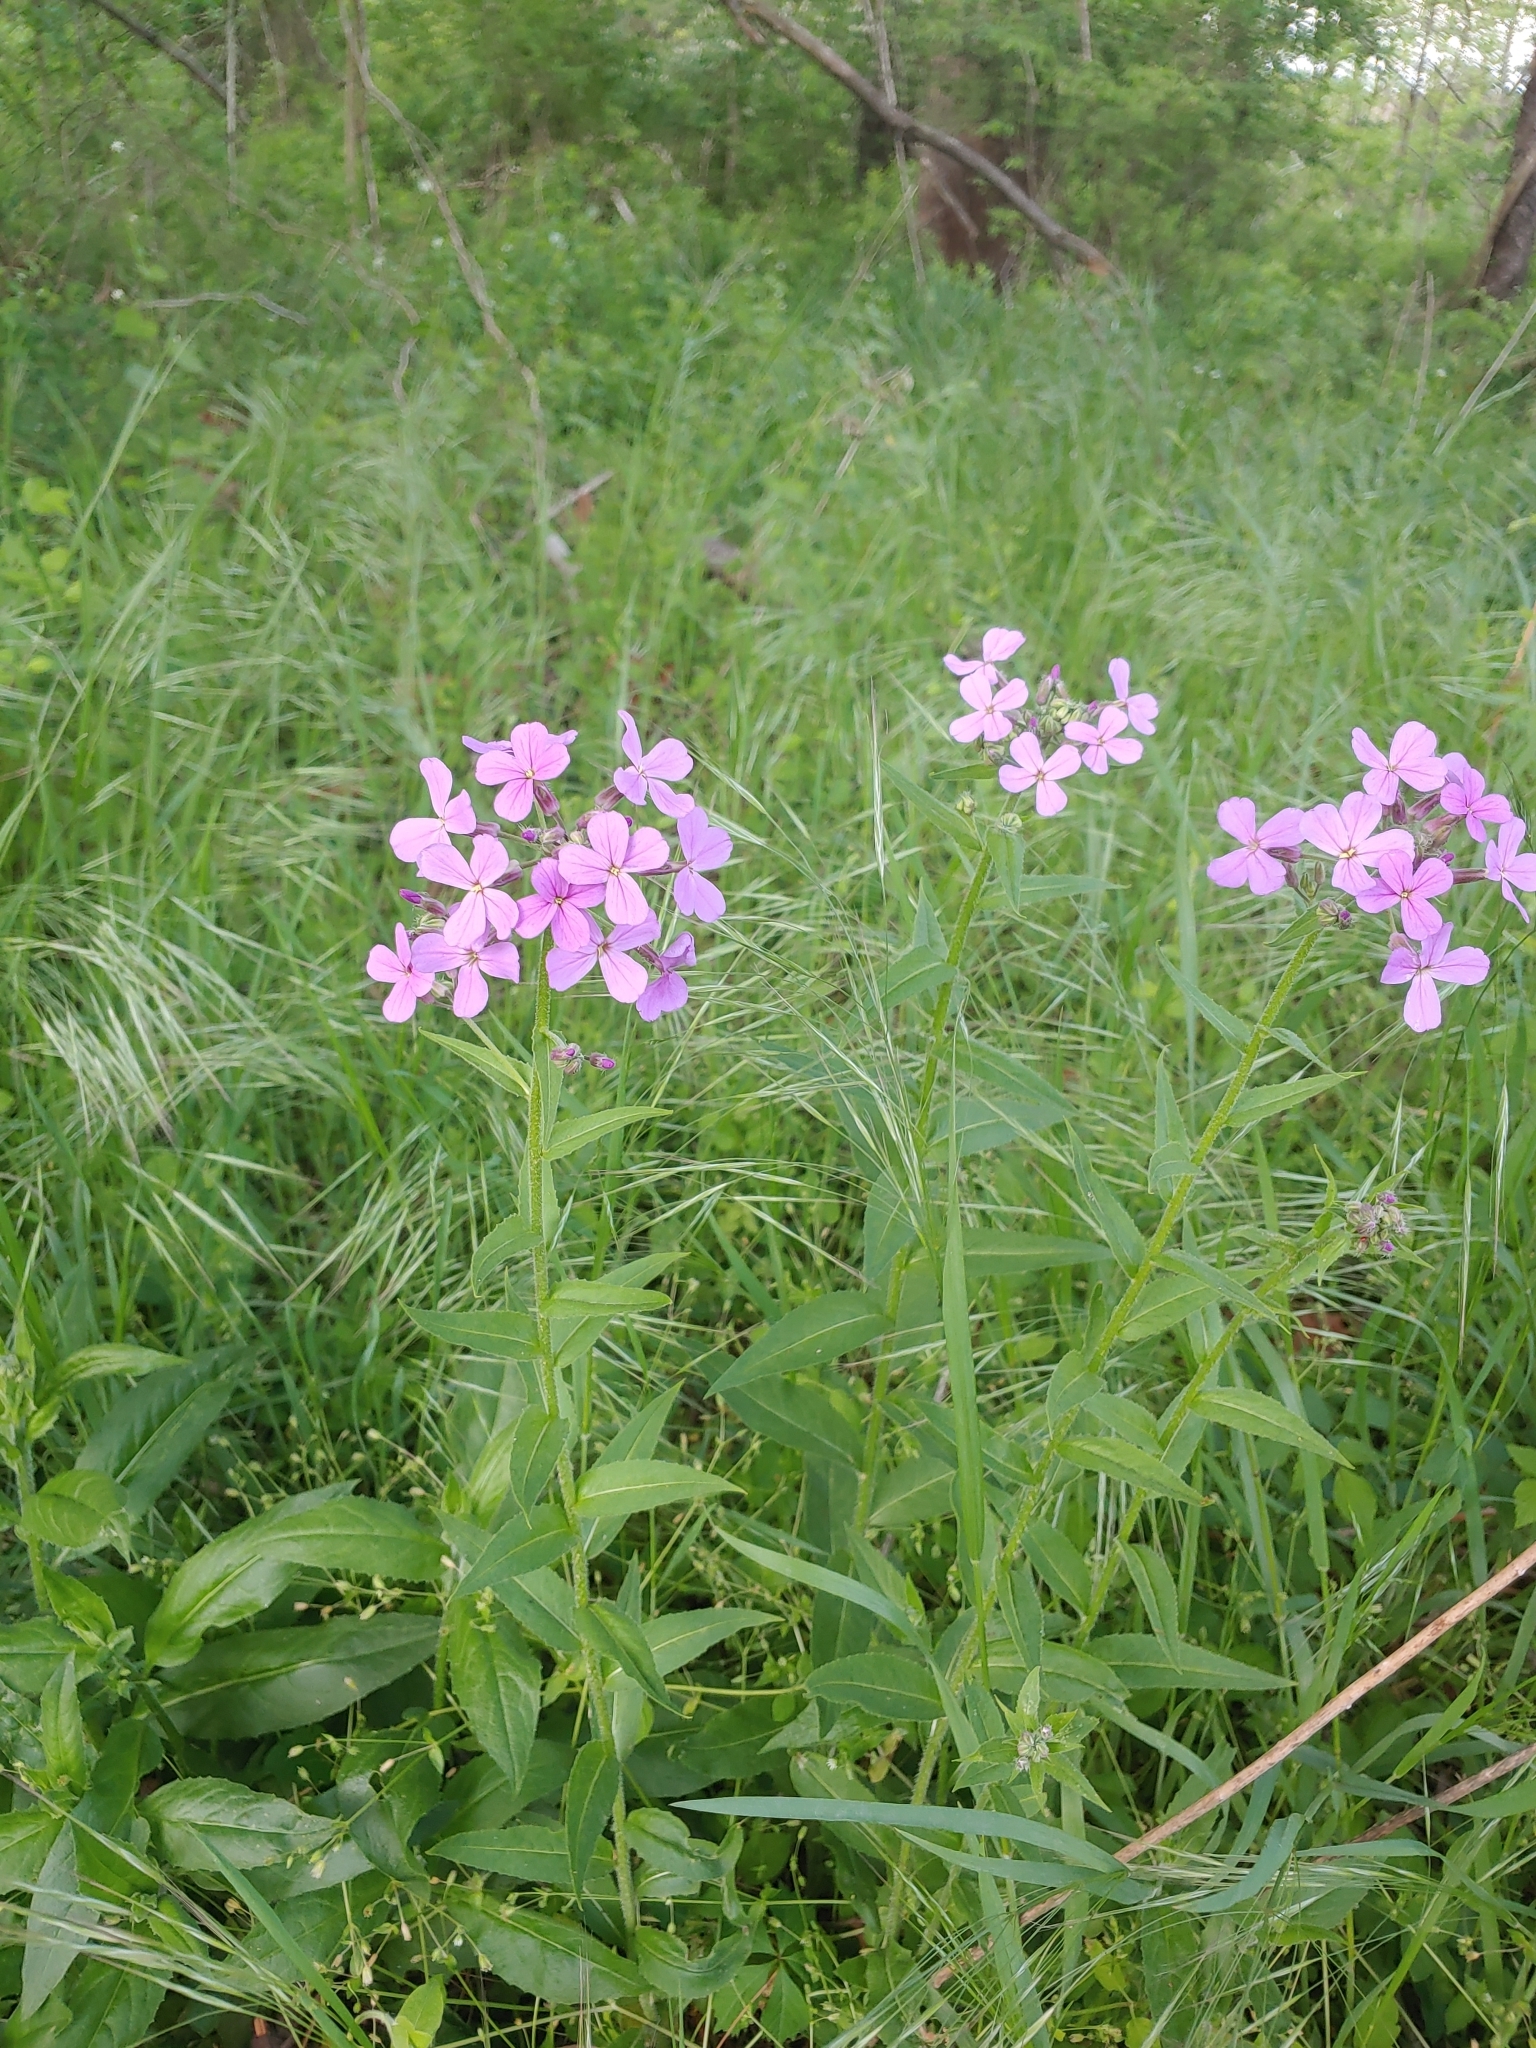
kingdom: Plantae
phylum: Tracheophyta
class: Magnoliopsida
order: Brassicales
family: Brassicaceae
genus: Hesperis
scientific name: Hesperis matronalis
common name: Dame's-violet
